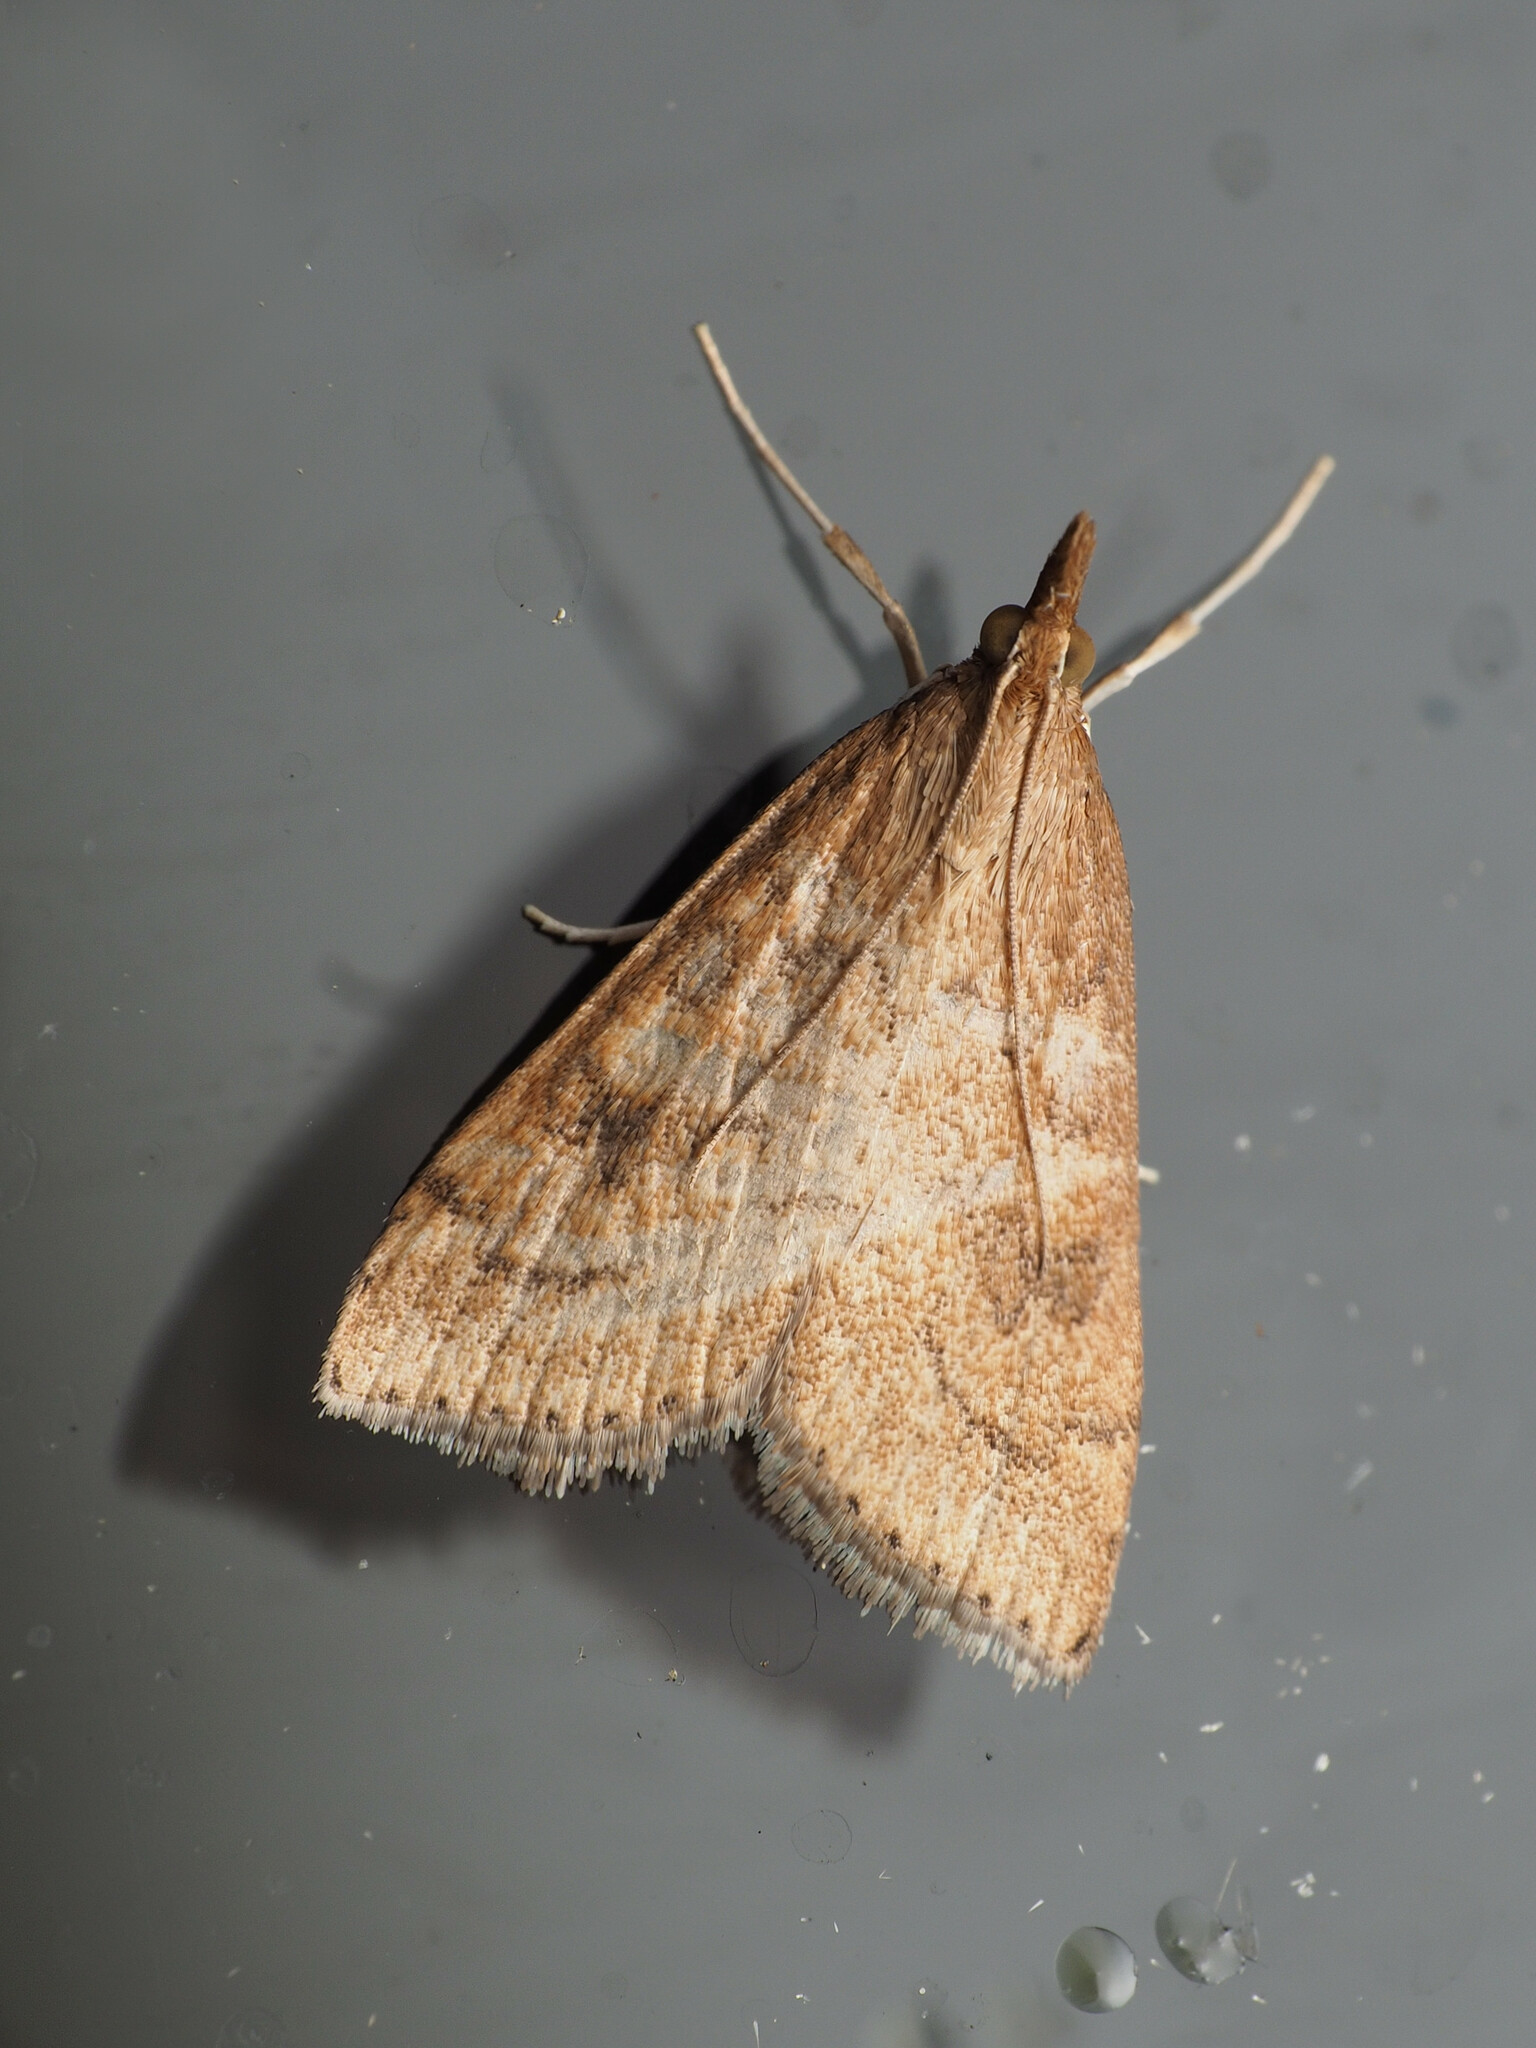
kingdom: Animalia
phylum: Arthropoda
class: Insecta
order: Lepidoptera
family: Crambidae
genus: Udea
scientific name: Udea rubigalis
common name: Celery leaftier moth
